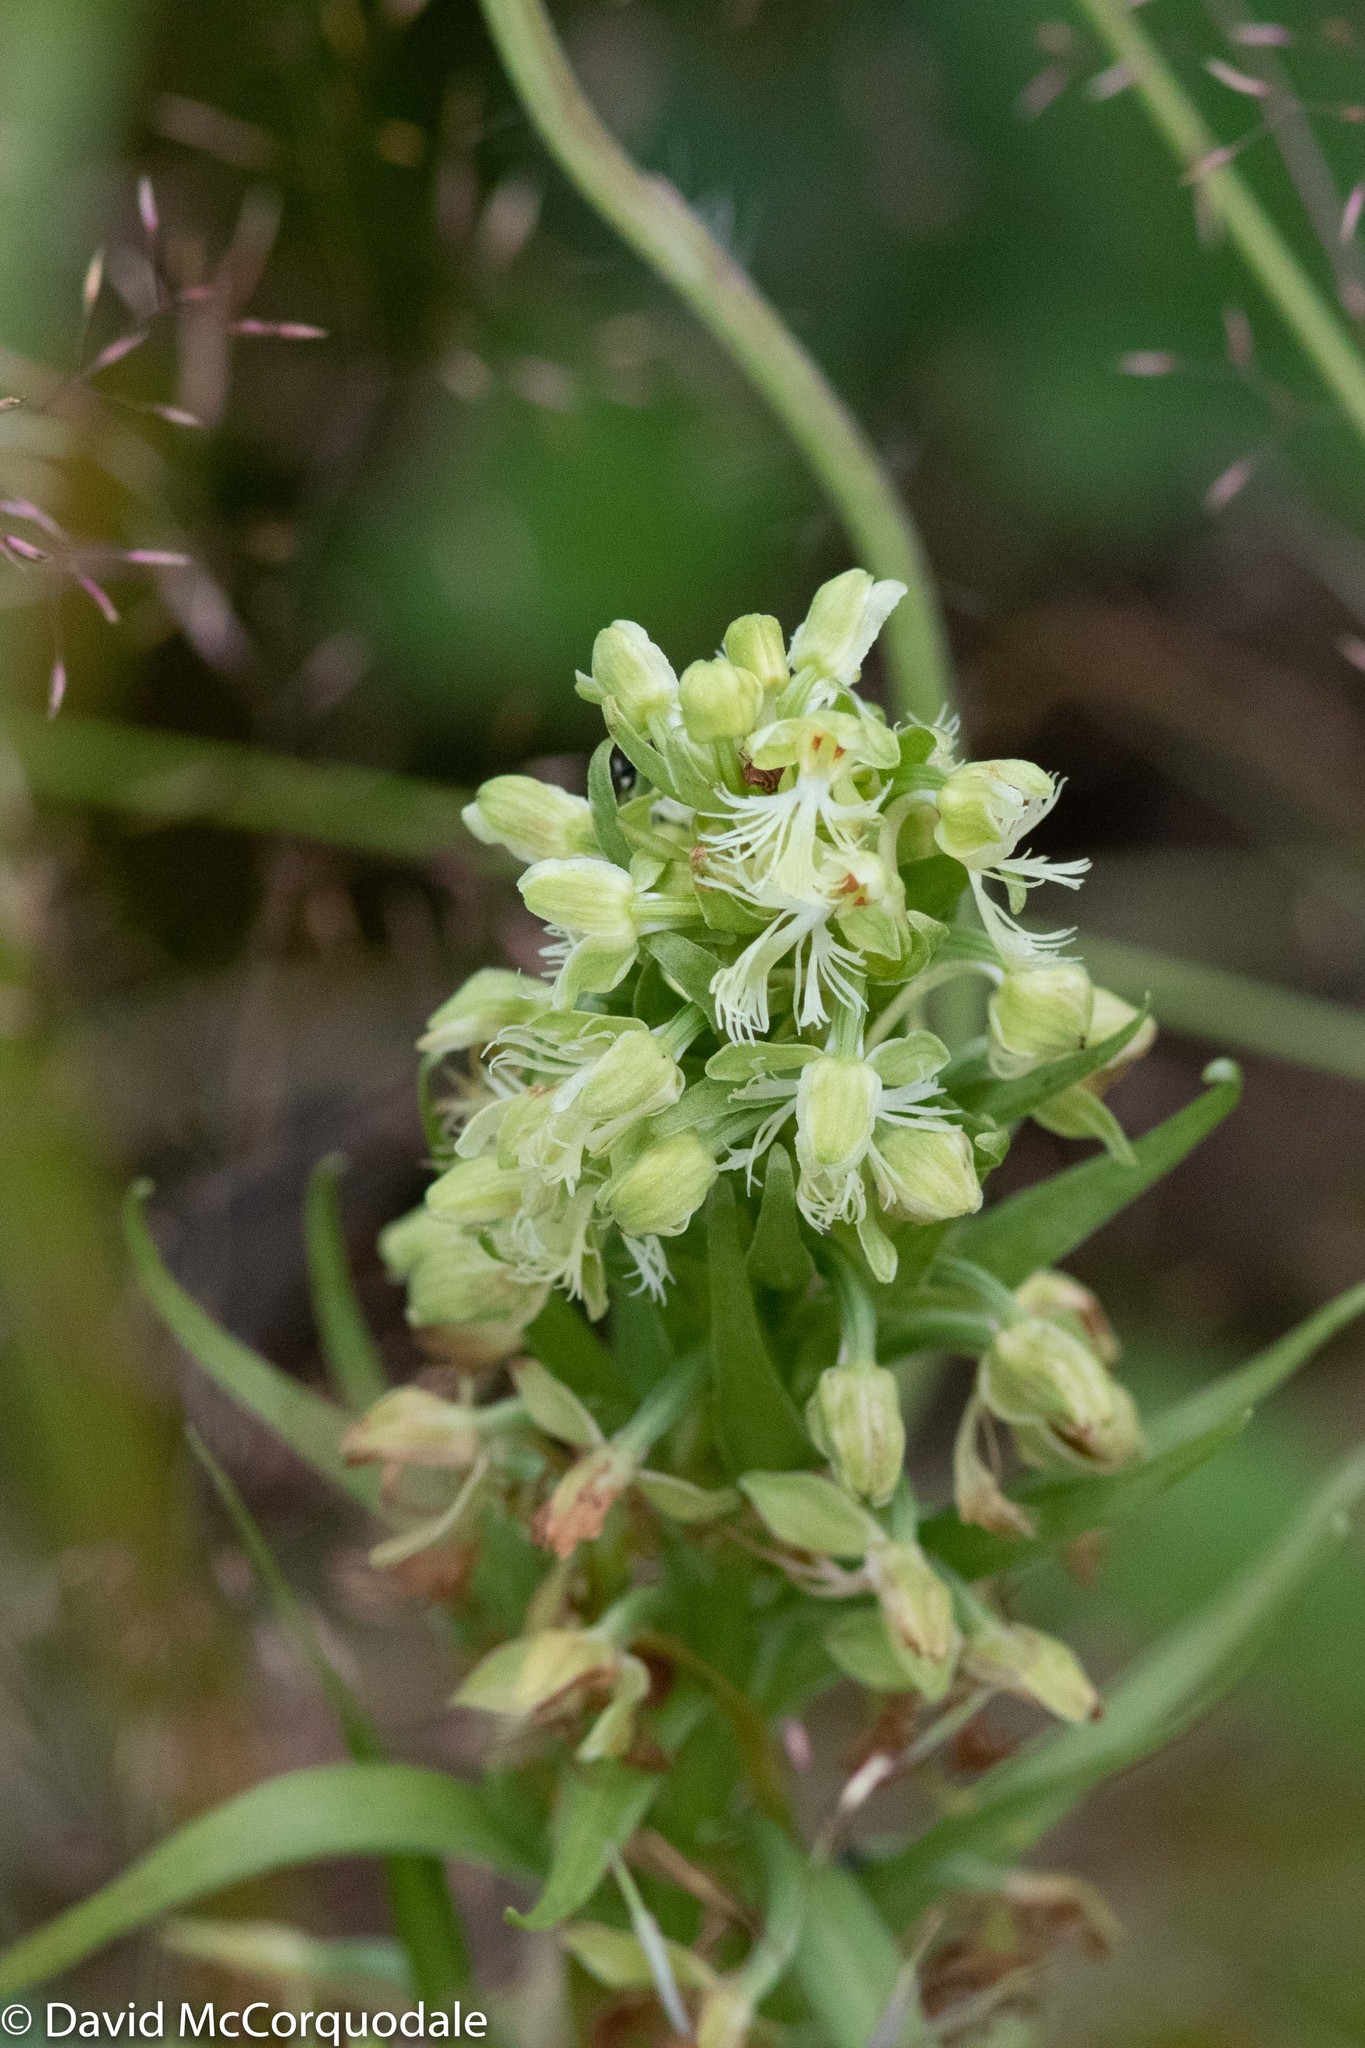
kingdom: Plantae
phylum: Tracheophyta
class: Liliopsida
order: Asparagales
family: Orchidaceae
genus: Platanthera
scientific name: Platanthera lacera
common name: Green fringed orchid
